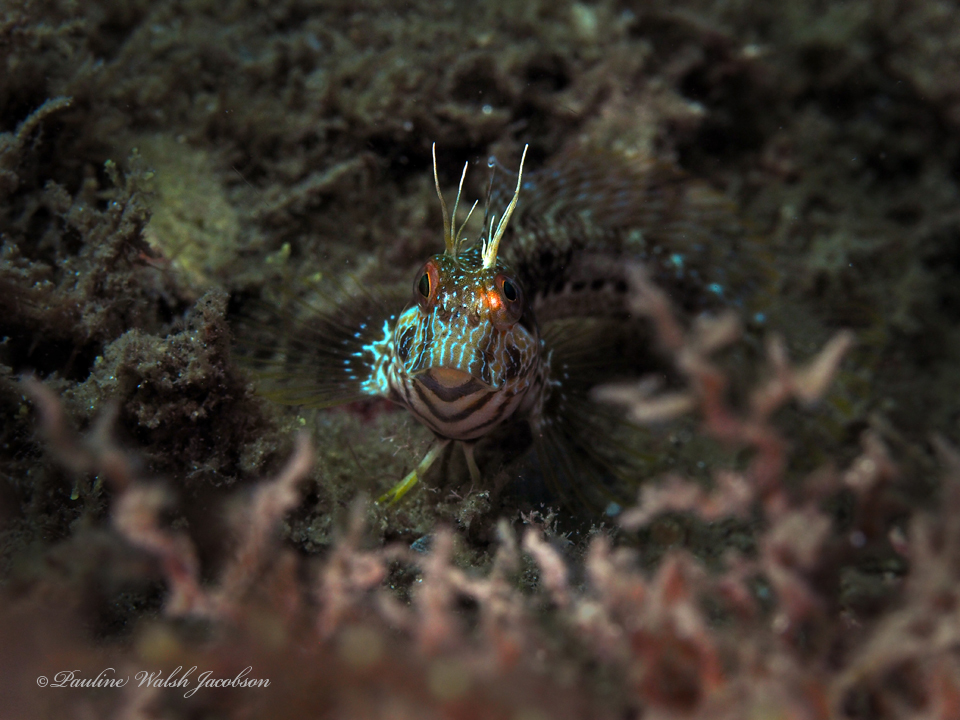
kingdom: Animalia
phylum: Chordata
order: Perciformes
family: Blenniidae
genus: Parablennius
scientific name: Parablennius marmoreus
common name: Seaweed blenny
